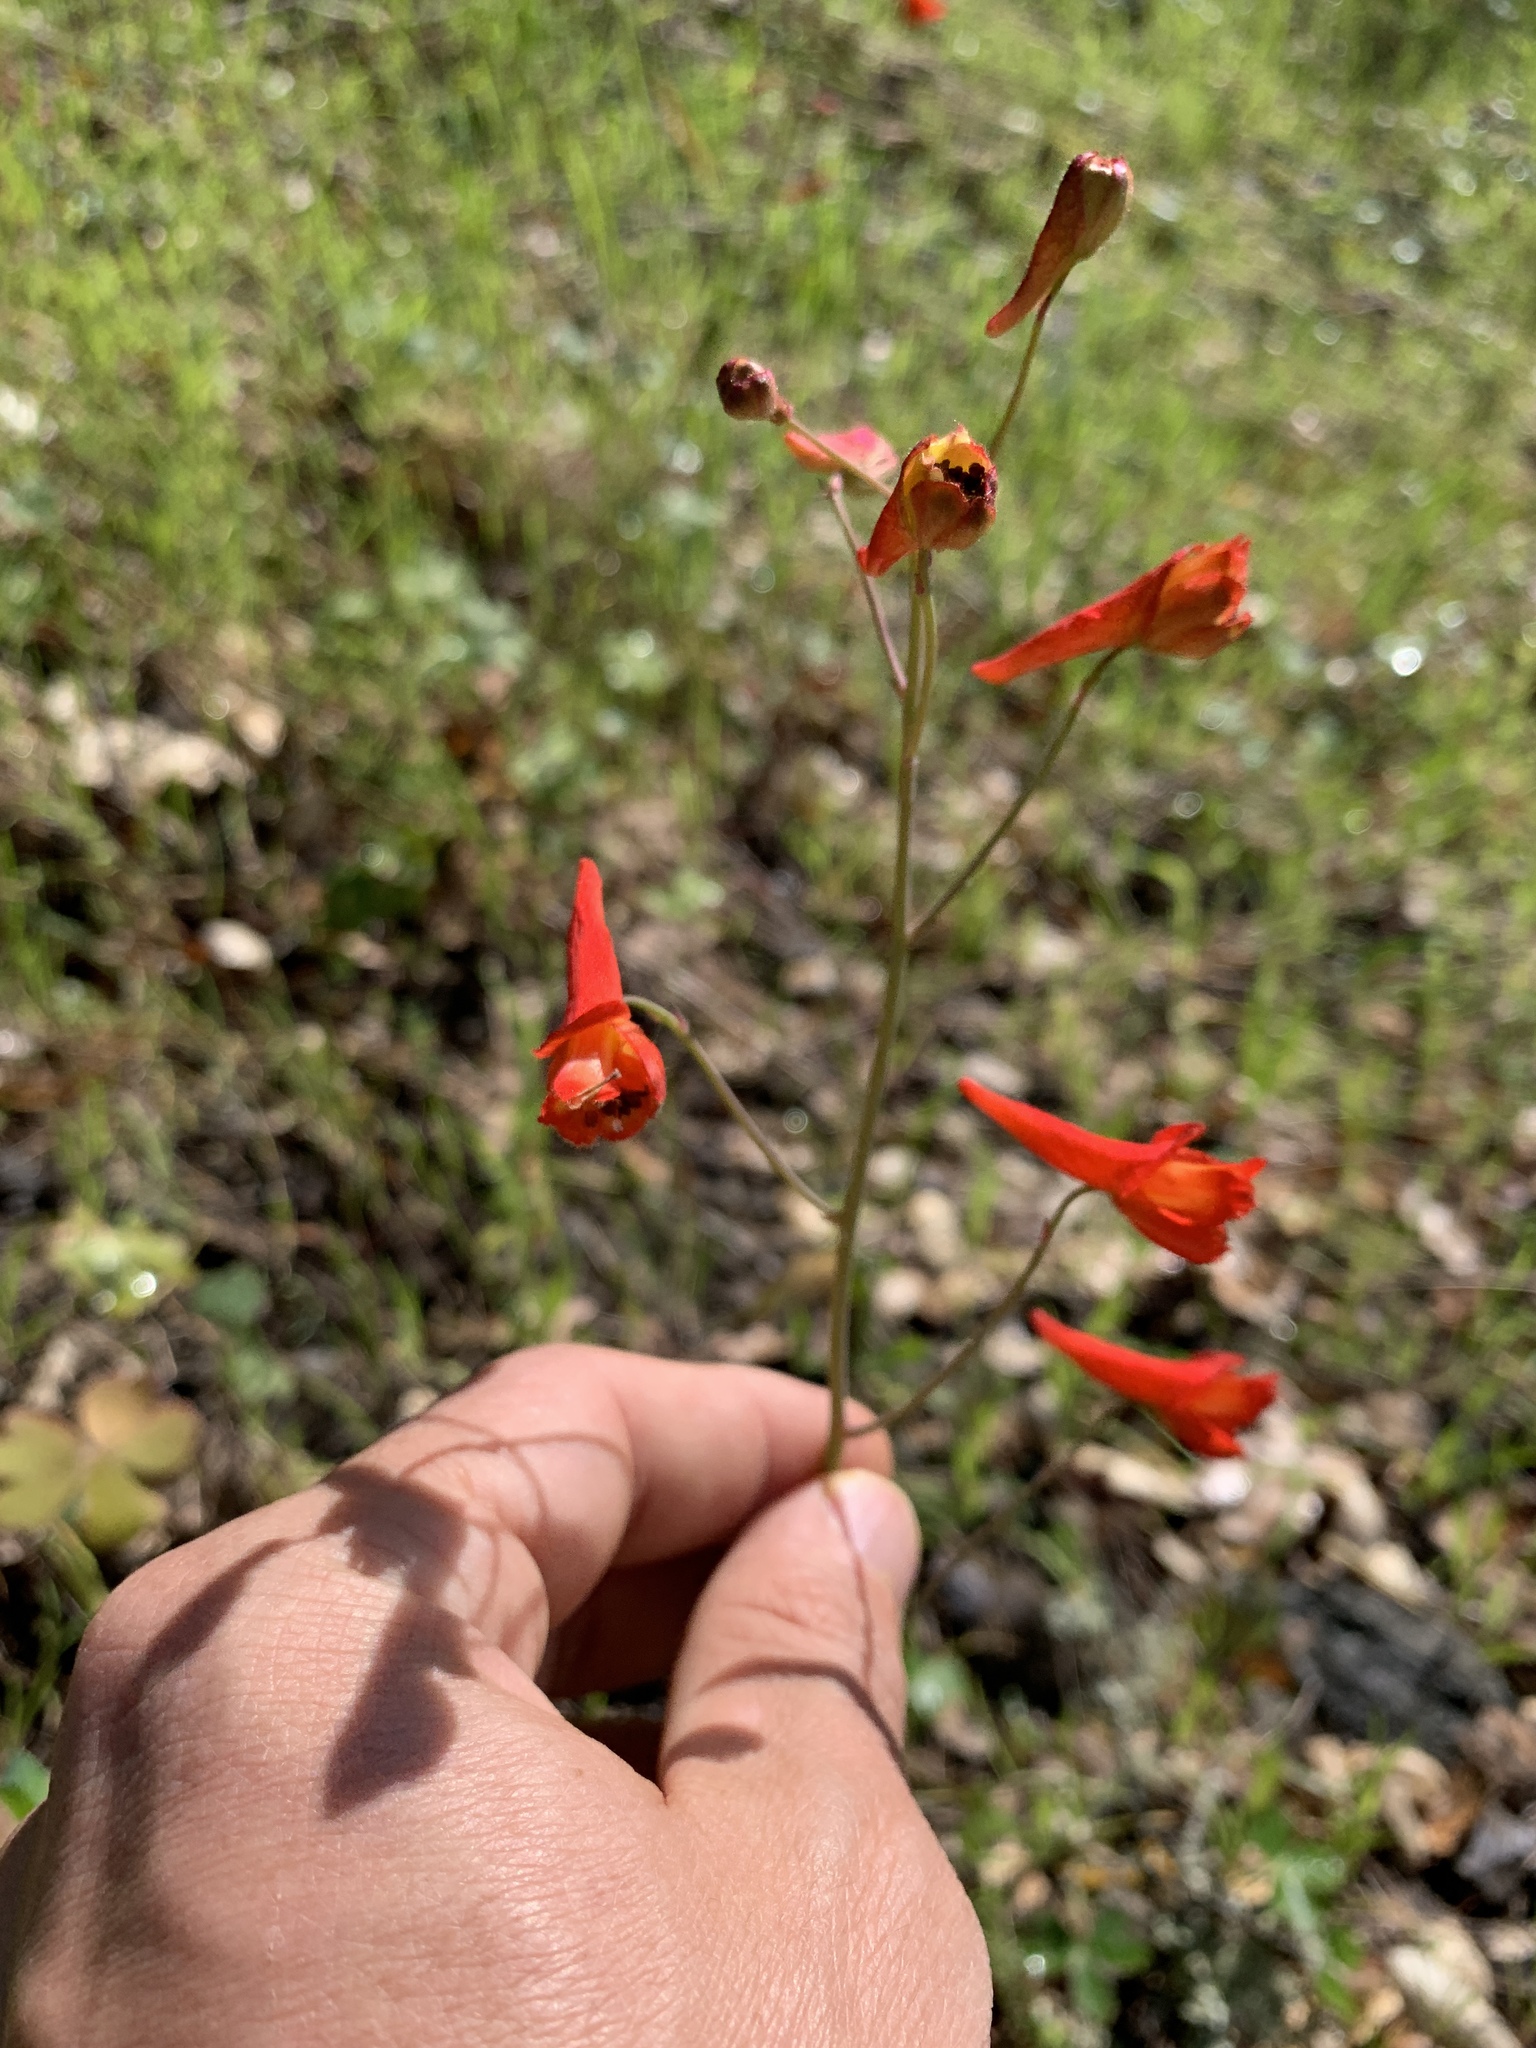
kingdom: Plantae
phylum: Tracheophyta
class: Magnoliopsida
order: Ranunculales
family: Ranunculaceae
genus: Delphinium
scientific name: Delphinium nudicaule
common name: Red larkspur
